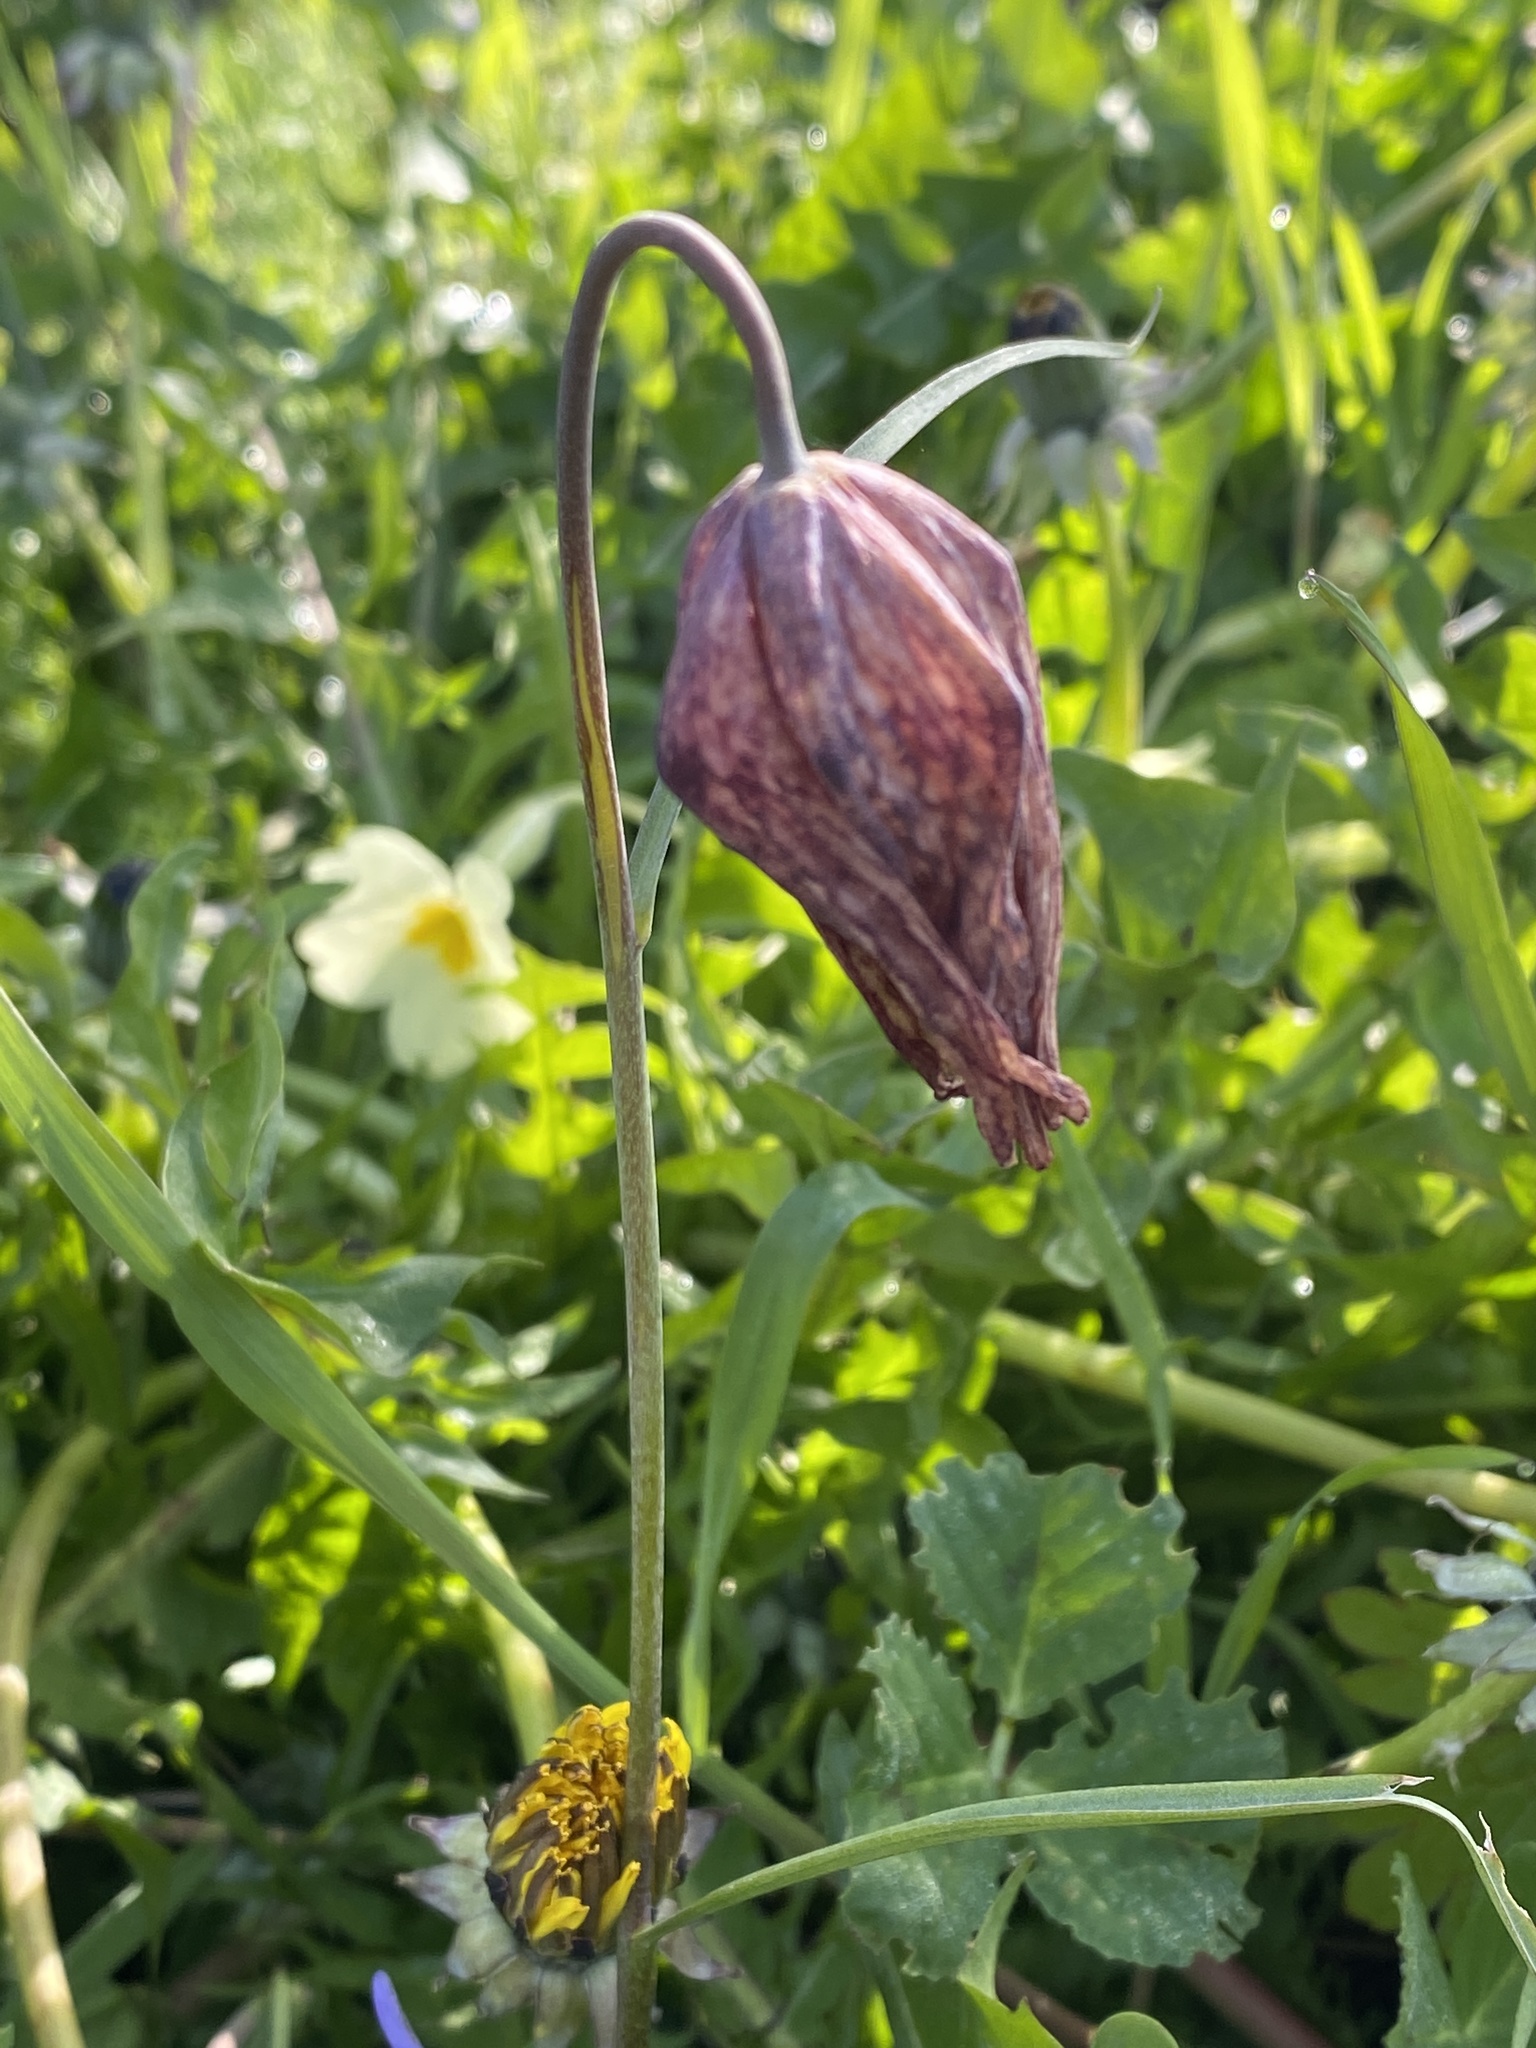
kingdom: Plantae
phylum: Tracheophyta
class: Liliopsida
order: Liliales
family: Liliaceae
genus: Fritillaria
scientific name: Fritillaria meleagris
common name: Fritillary
